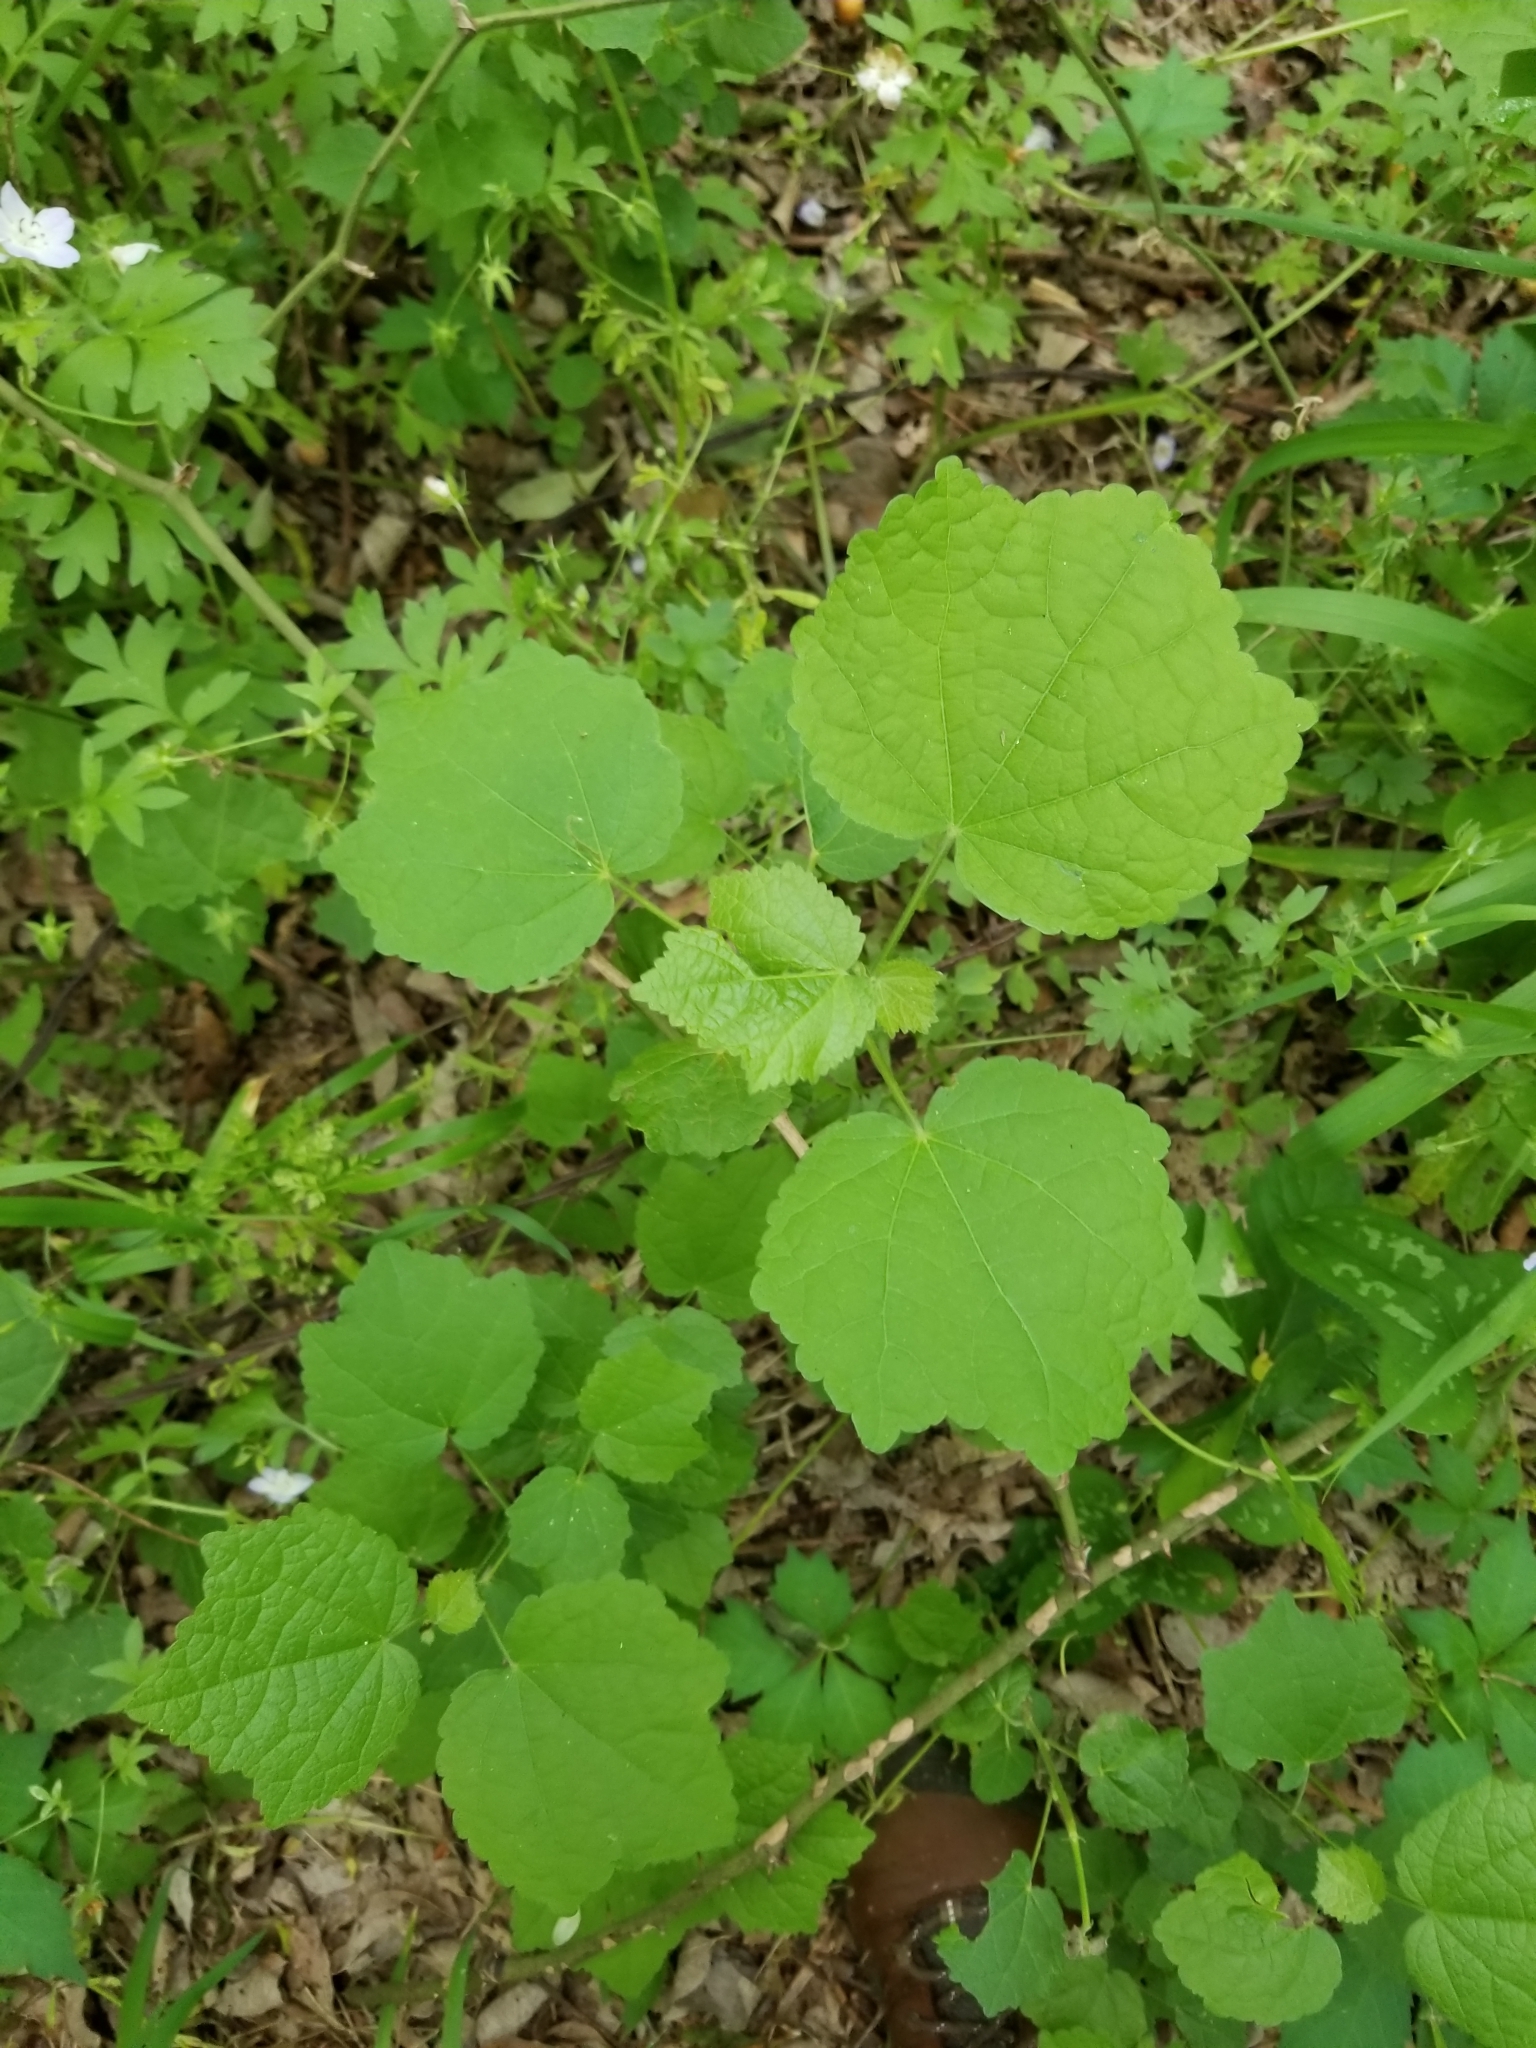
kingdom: Plantae
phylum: Tracheophyta
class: Magnoliopsida
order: Malvales
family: Malvaceae
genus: Malvaviscus
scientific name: Malvaviscus arboreus
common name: Wax mallow
